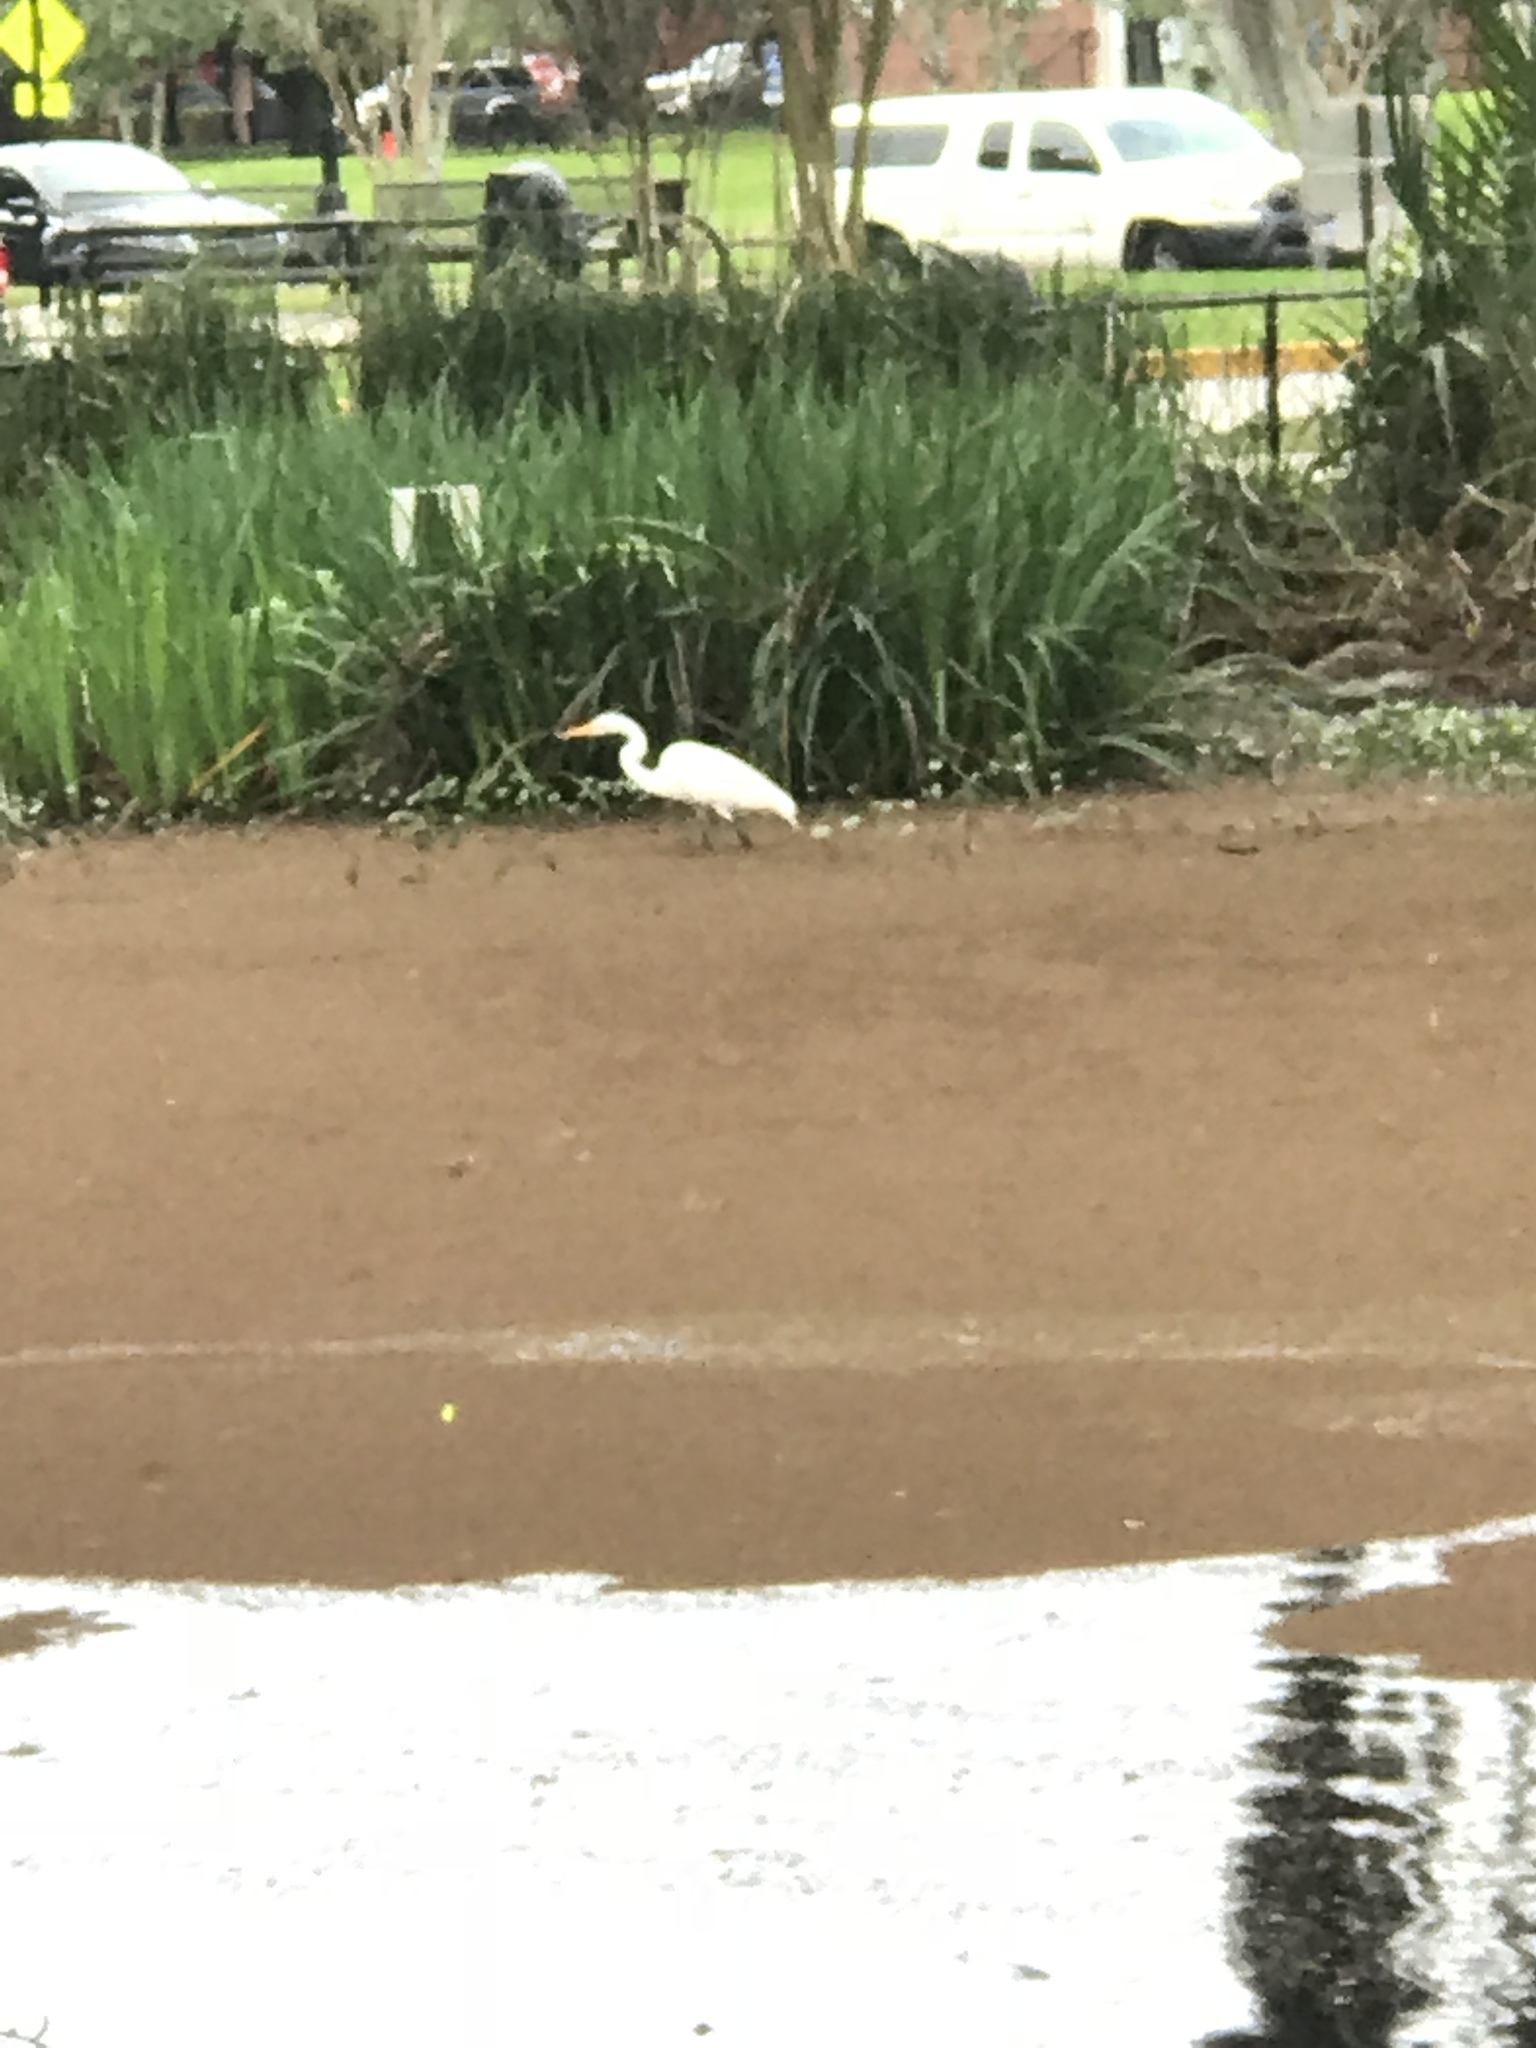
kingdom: Animalia
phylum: Chordata
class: Aves
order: Pelecaniformes
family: Ardeidae
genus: Ardea
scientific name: Ardea alba
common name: Great egret
